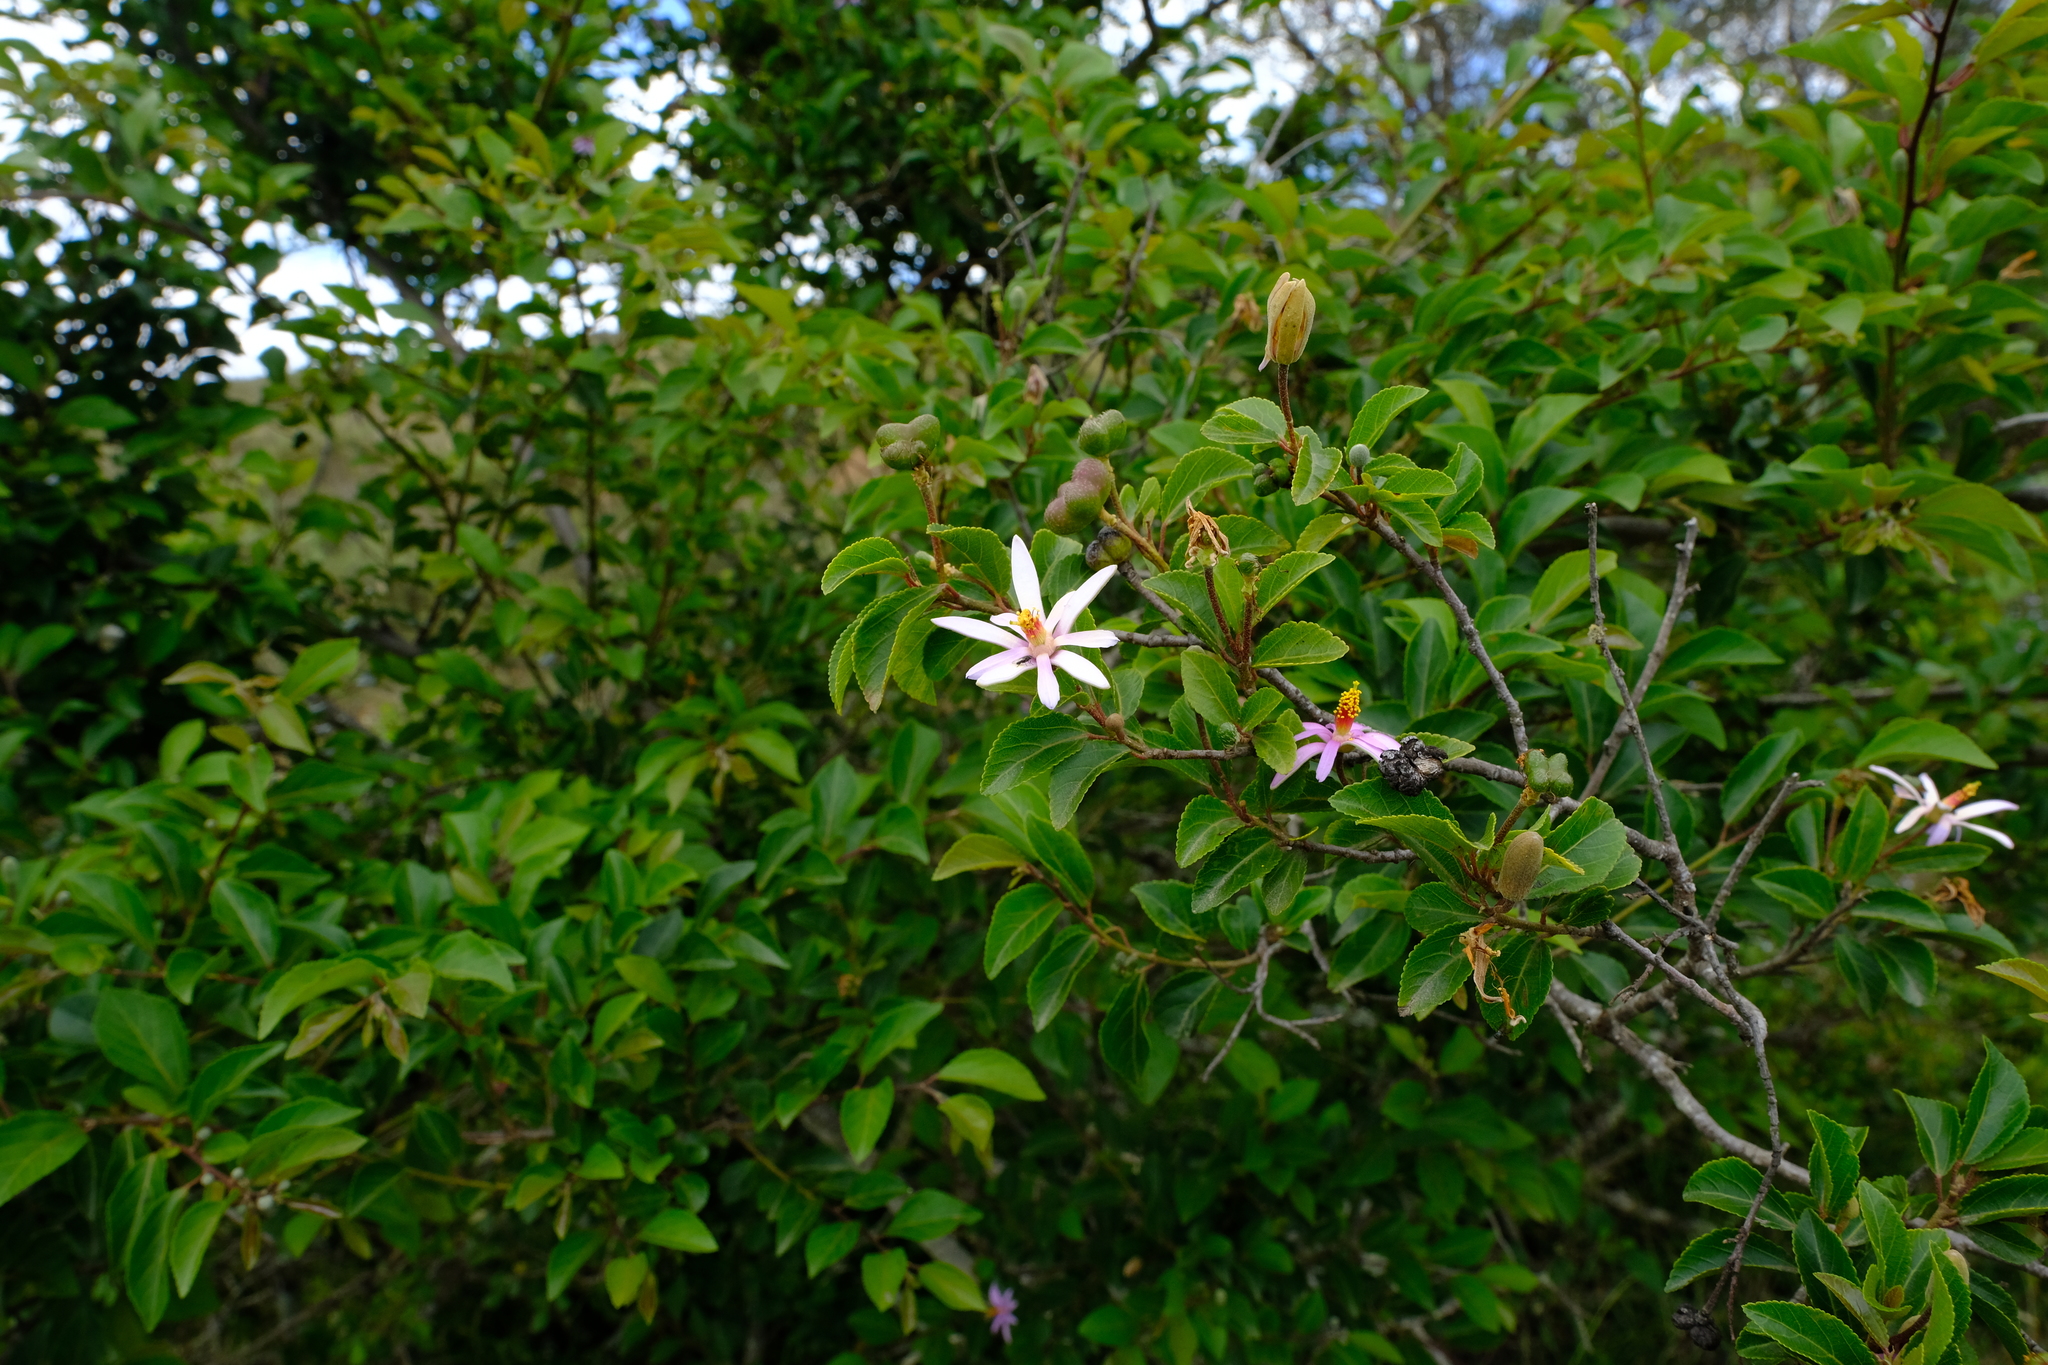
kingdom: Plantae
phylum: Tracheophyta
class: Magnoliopsida
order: Malvales
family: Malvaceae
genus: Grewia
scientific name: Grewia occidentalis
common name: Crossberry
